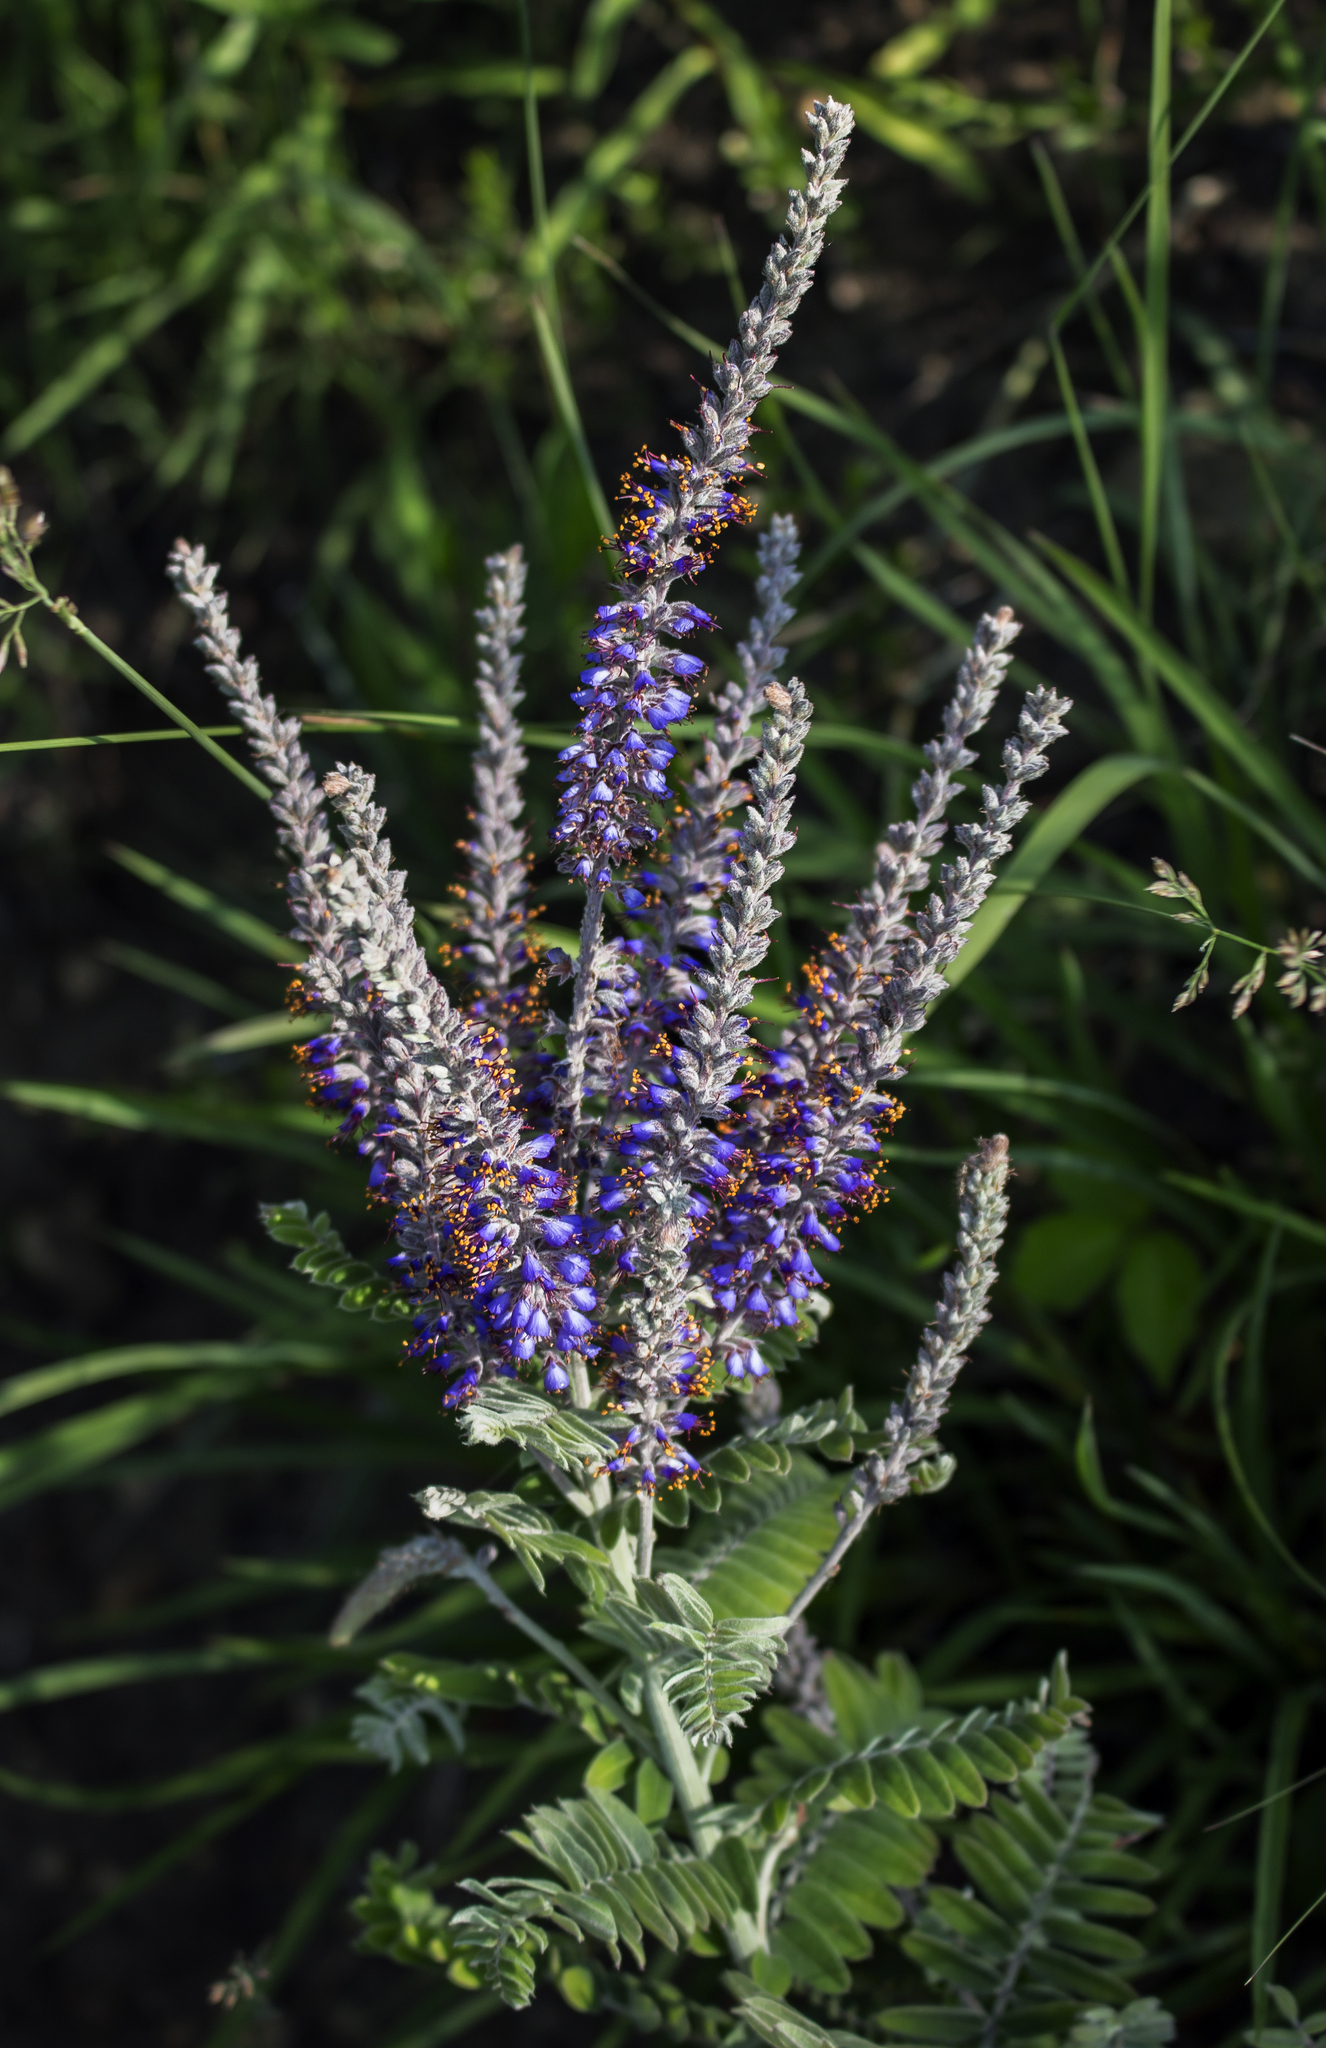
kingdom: Plantae
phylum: Tracheophyta
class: Magnoliopsida
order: Fabales
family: Fabaceae
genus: Amorpha
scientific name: Amorpha canescens
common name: Leadplant
